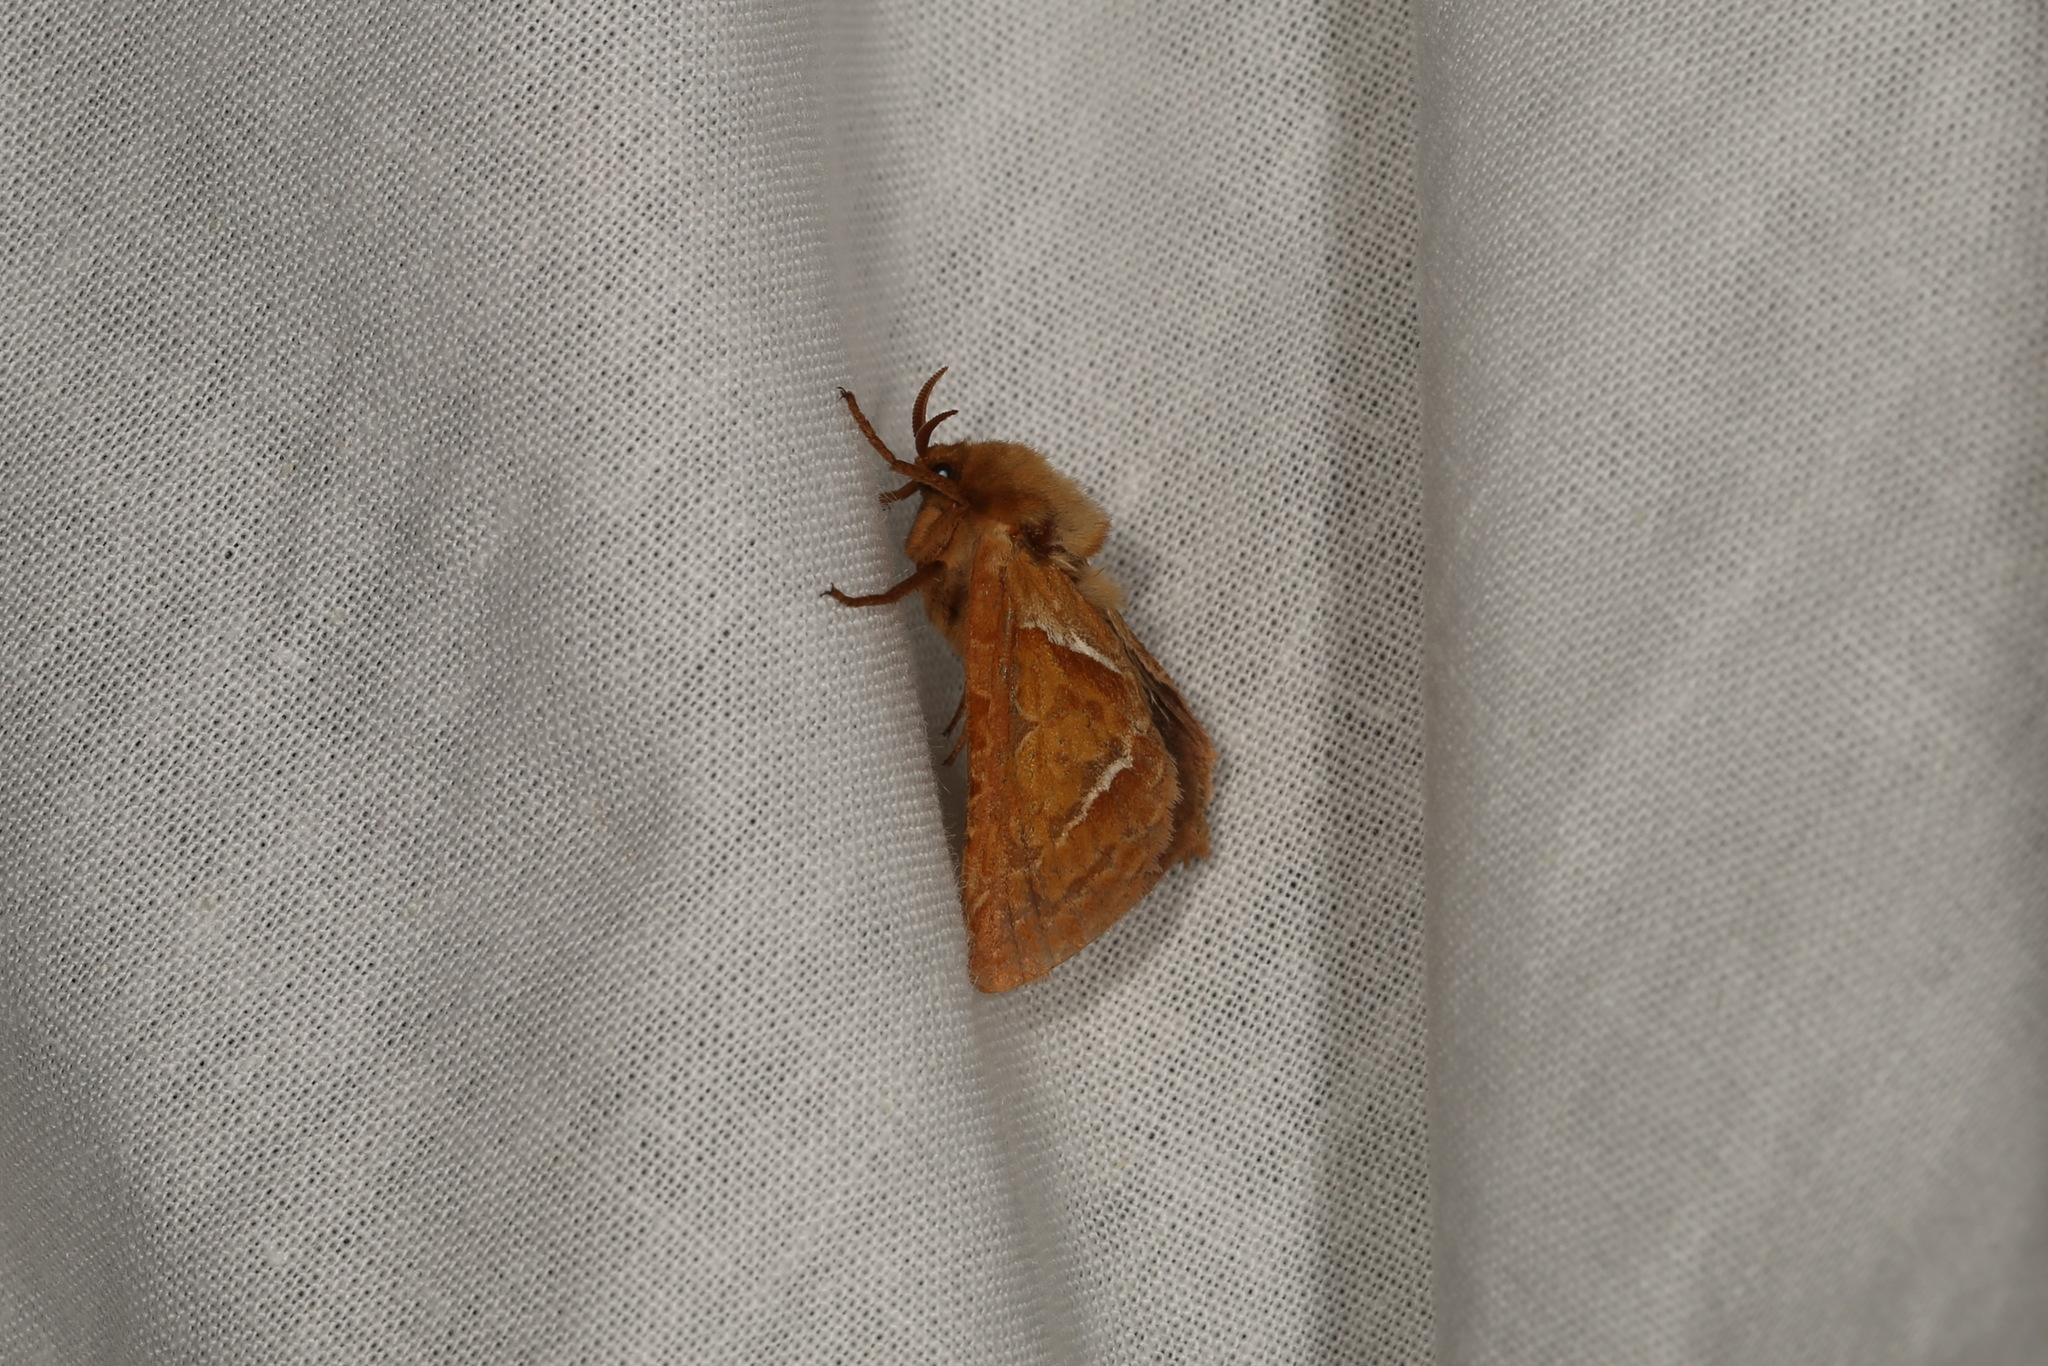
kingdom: Animalia
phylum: Arthropoda
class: Insecta
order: Lepidoptera
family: Hepialidae
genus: Triodia
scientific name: Triodia sylvina
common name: Orange swift
